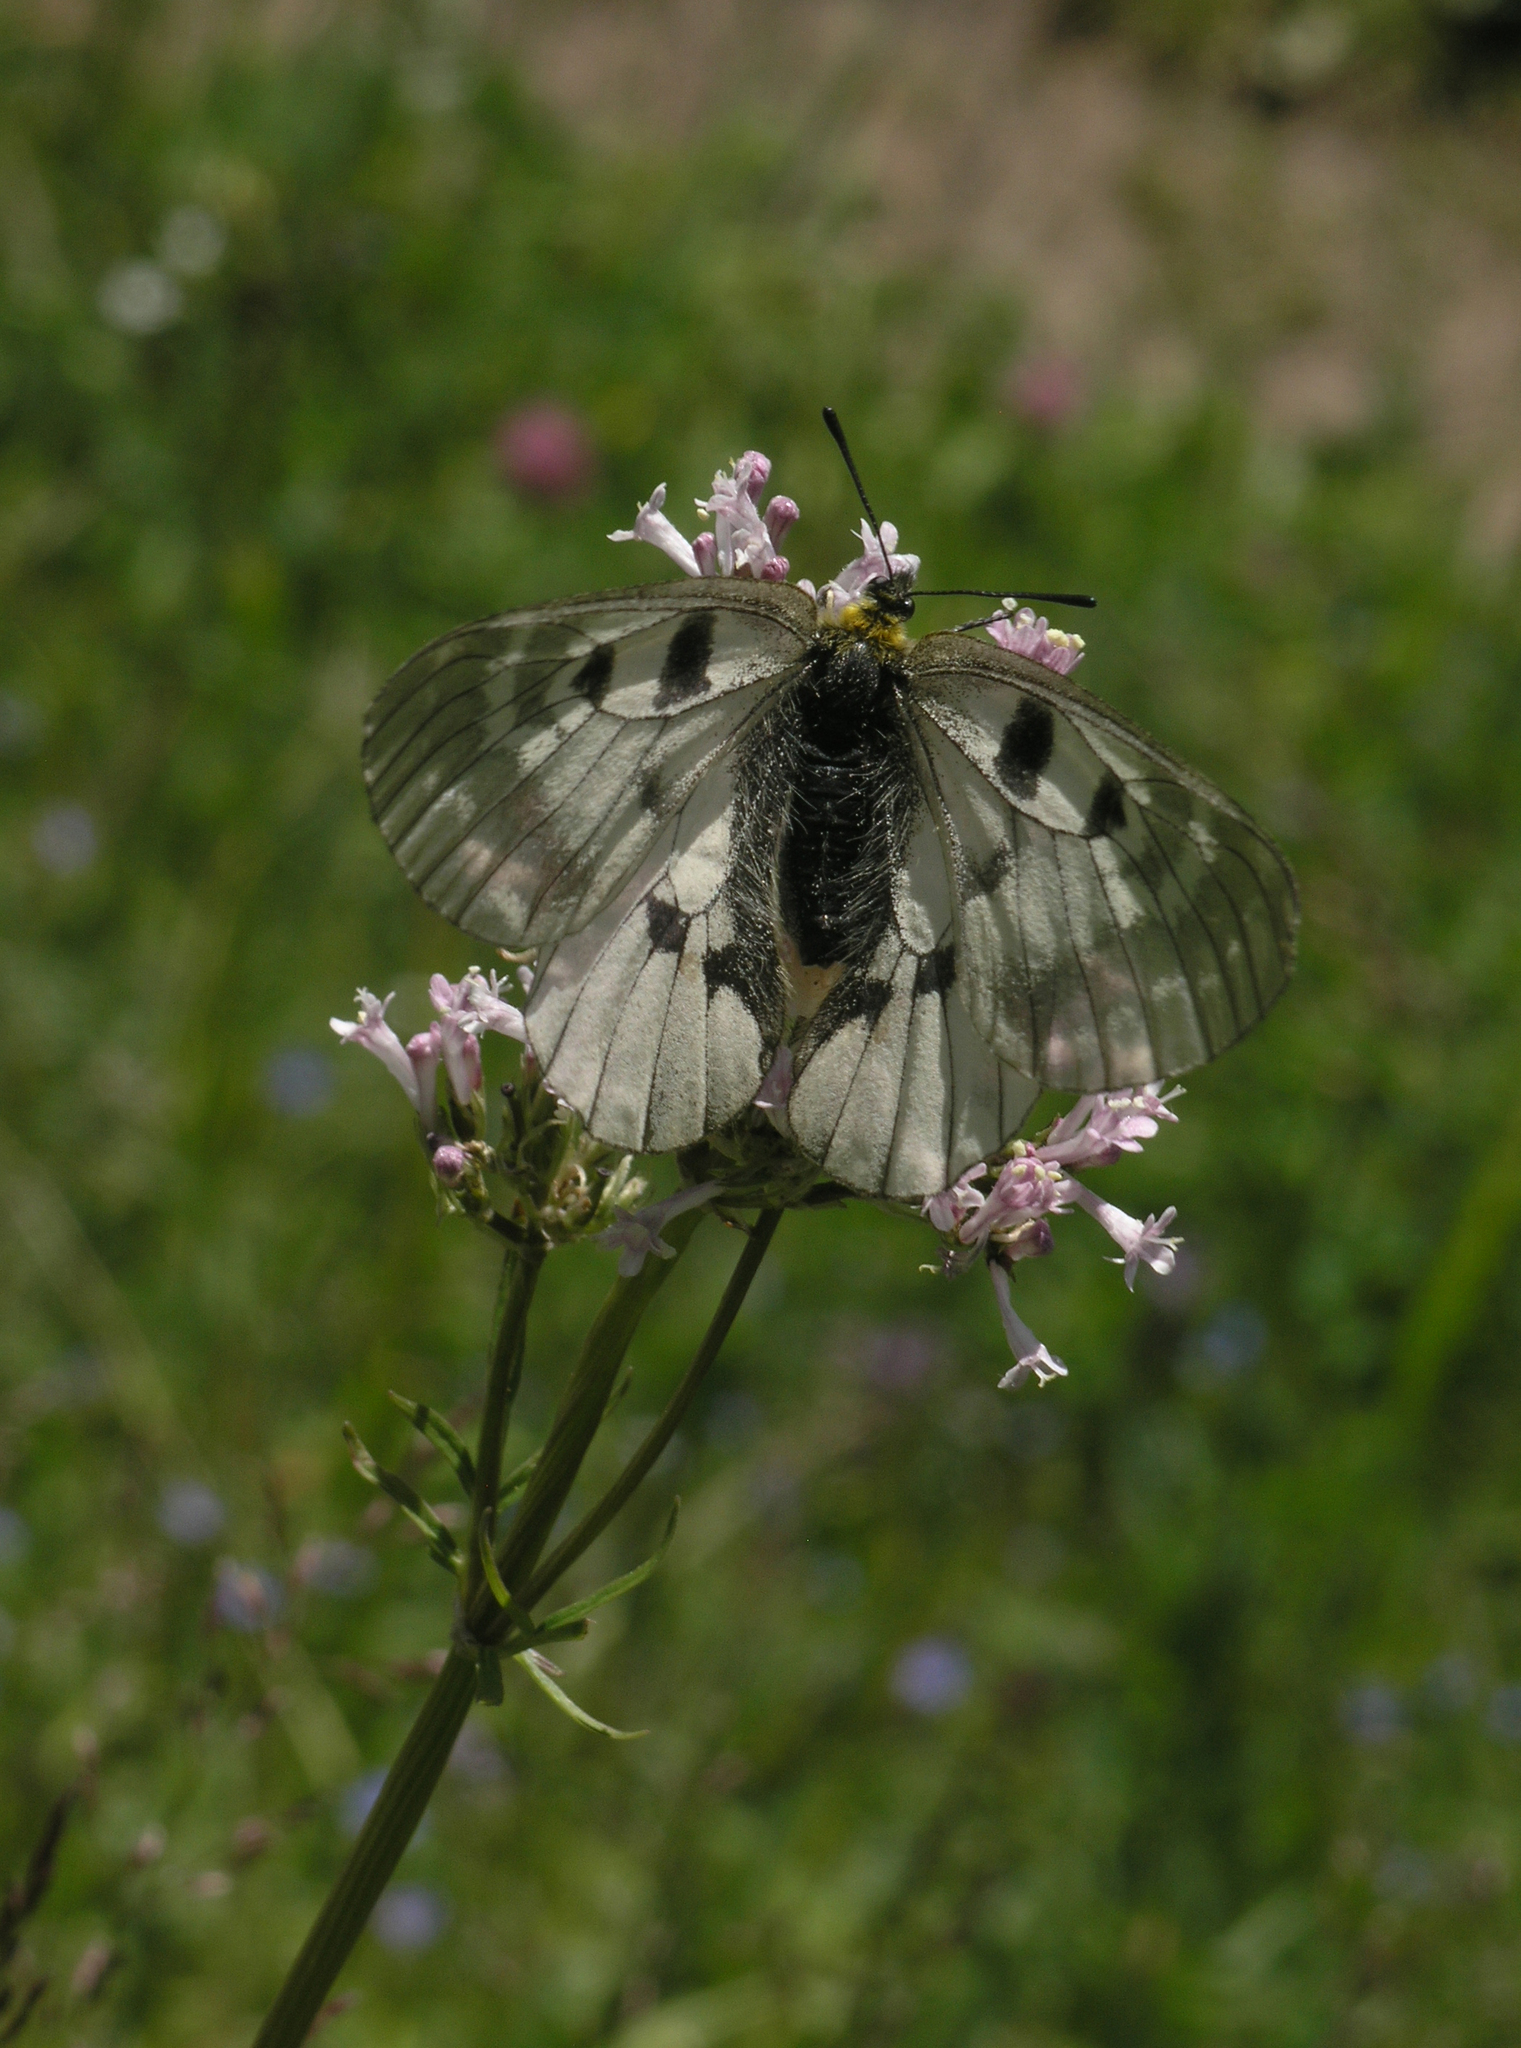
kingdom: Animalia
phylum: Arthropoda
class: Insecta
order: Lepidoptera
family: Papilionidae
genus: Parnassius
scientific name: Parnassius mnemosyne
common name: Clouded apollo
